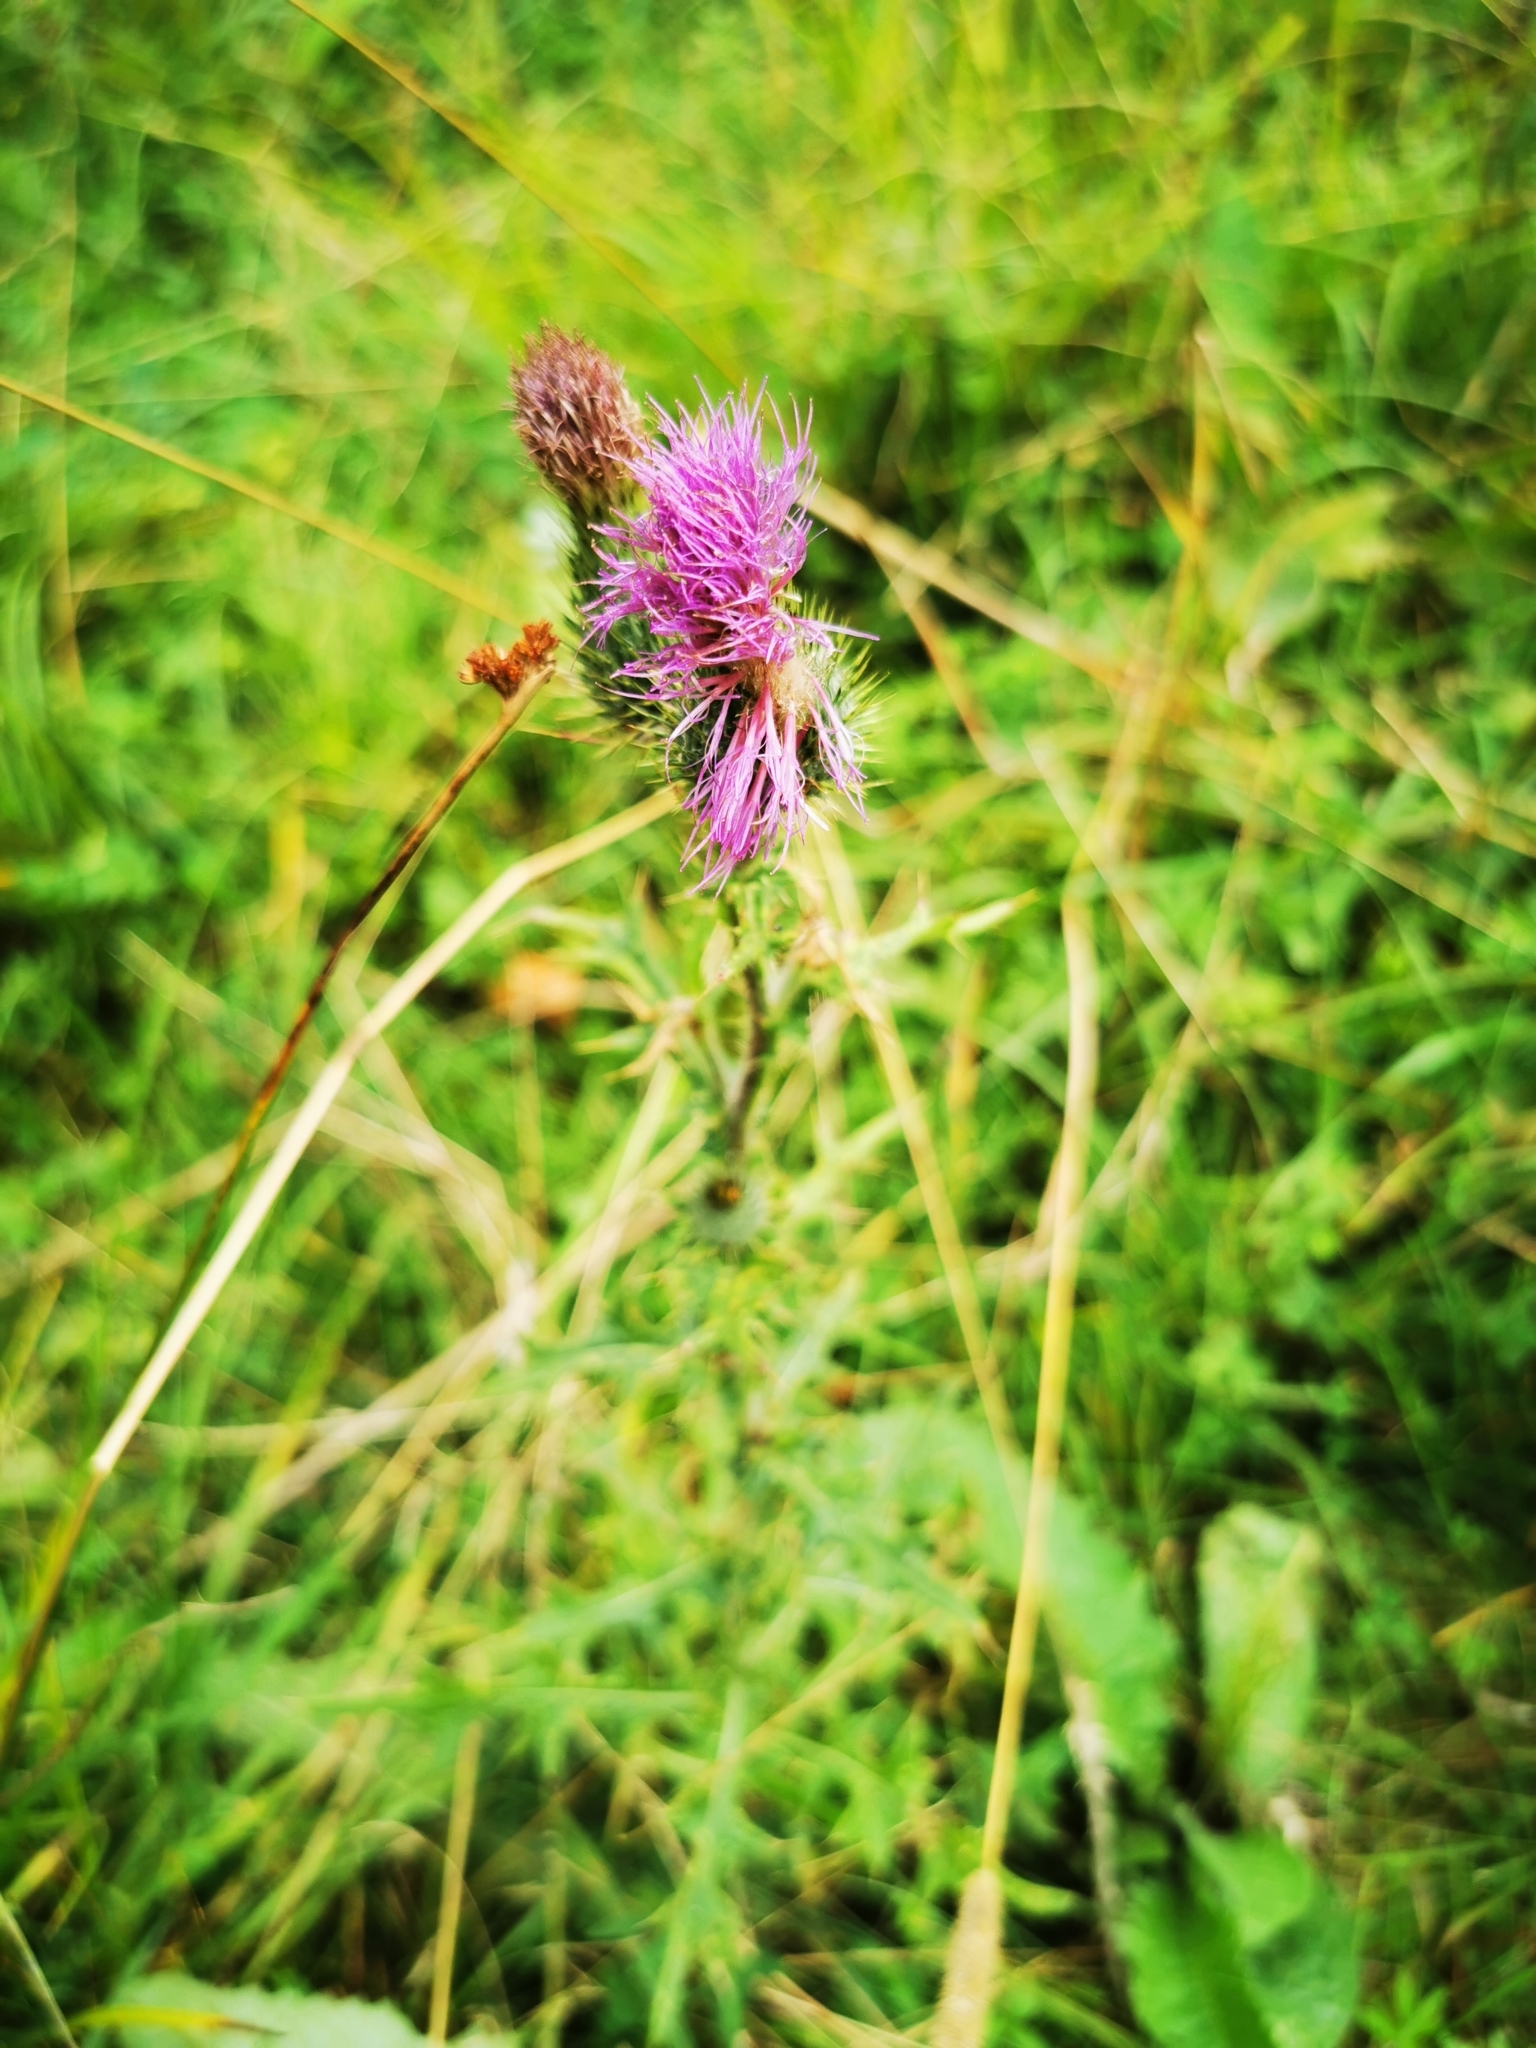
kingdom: Plantae
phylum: Tracheophyta
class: Magnoliopsida
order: Asterales
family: Asteraceae
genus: Cirsium
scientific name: Cirsium vulgare
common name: Bull thistle
